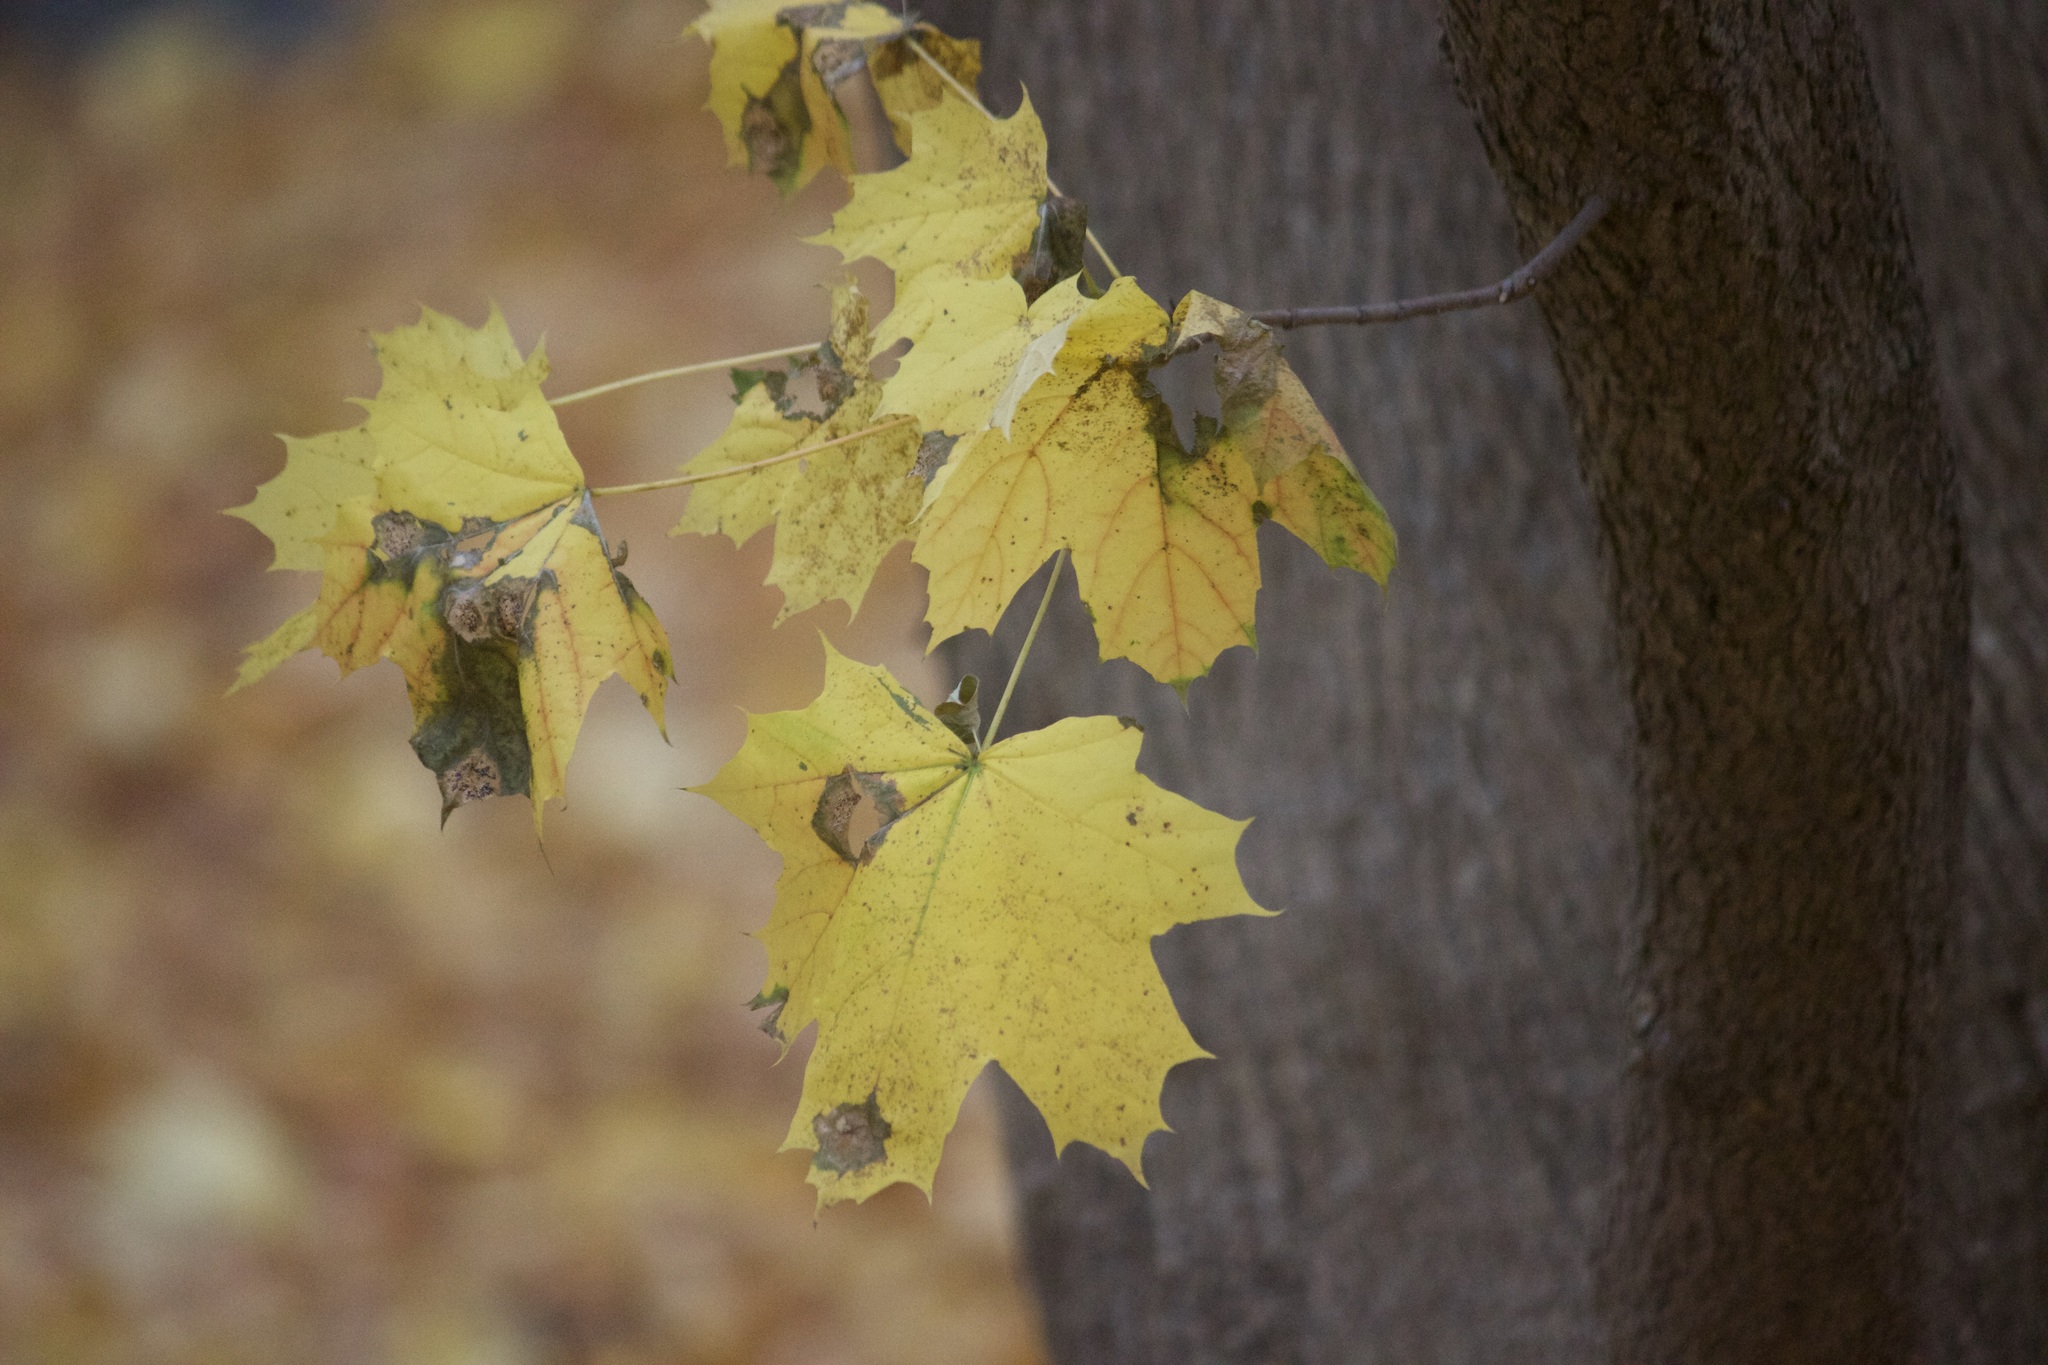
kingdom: Plantae
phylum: Tracheophyta
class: Magnoliopsida
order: Sapindales
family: Sapindaceae
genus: Acer
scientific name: Acer platanoides
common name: Norway maple
